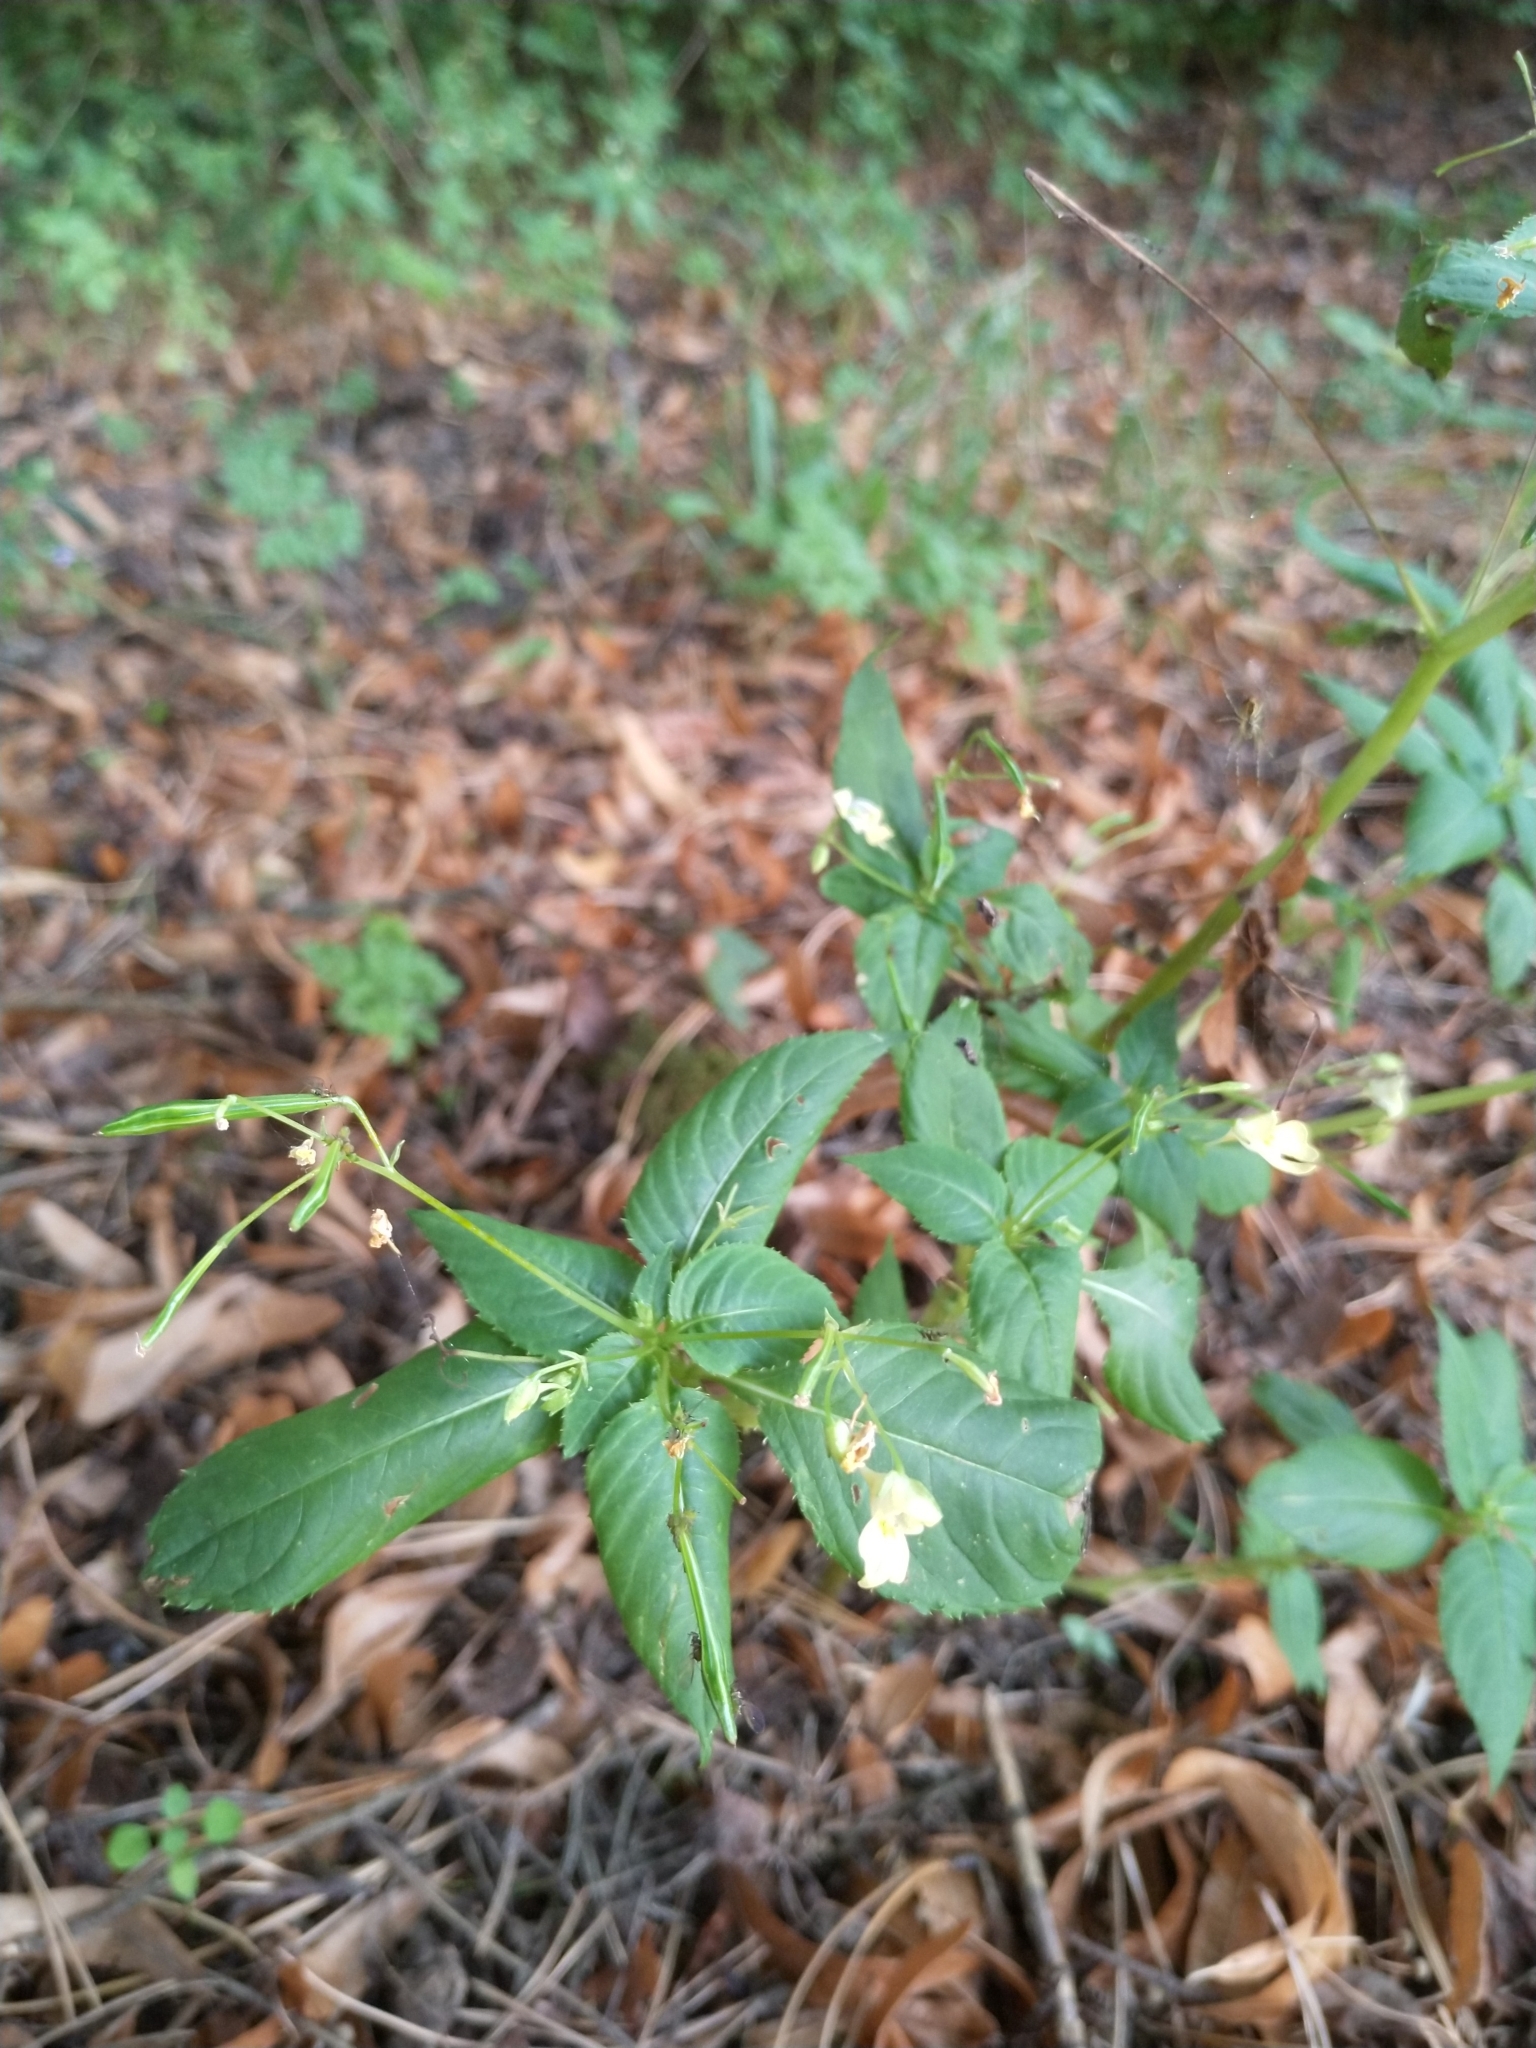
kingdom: Plantae
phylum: Tracheophyta
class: Magnoliopsida
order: Ericales
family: Balsaminaceae
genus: Impatiens
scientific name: Impatiens parviflora
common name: Small balsam
